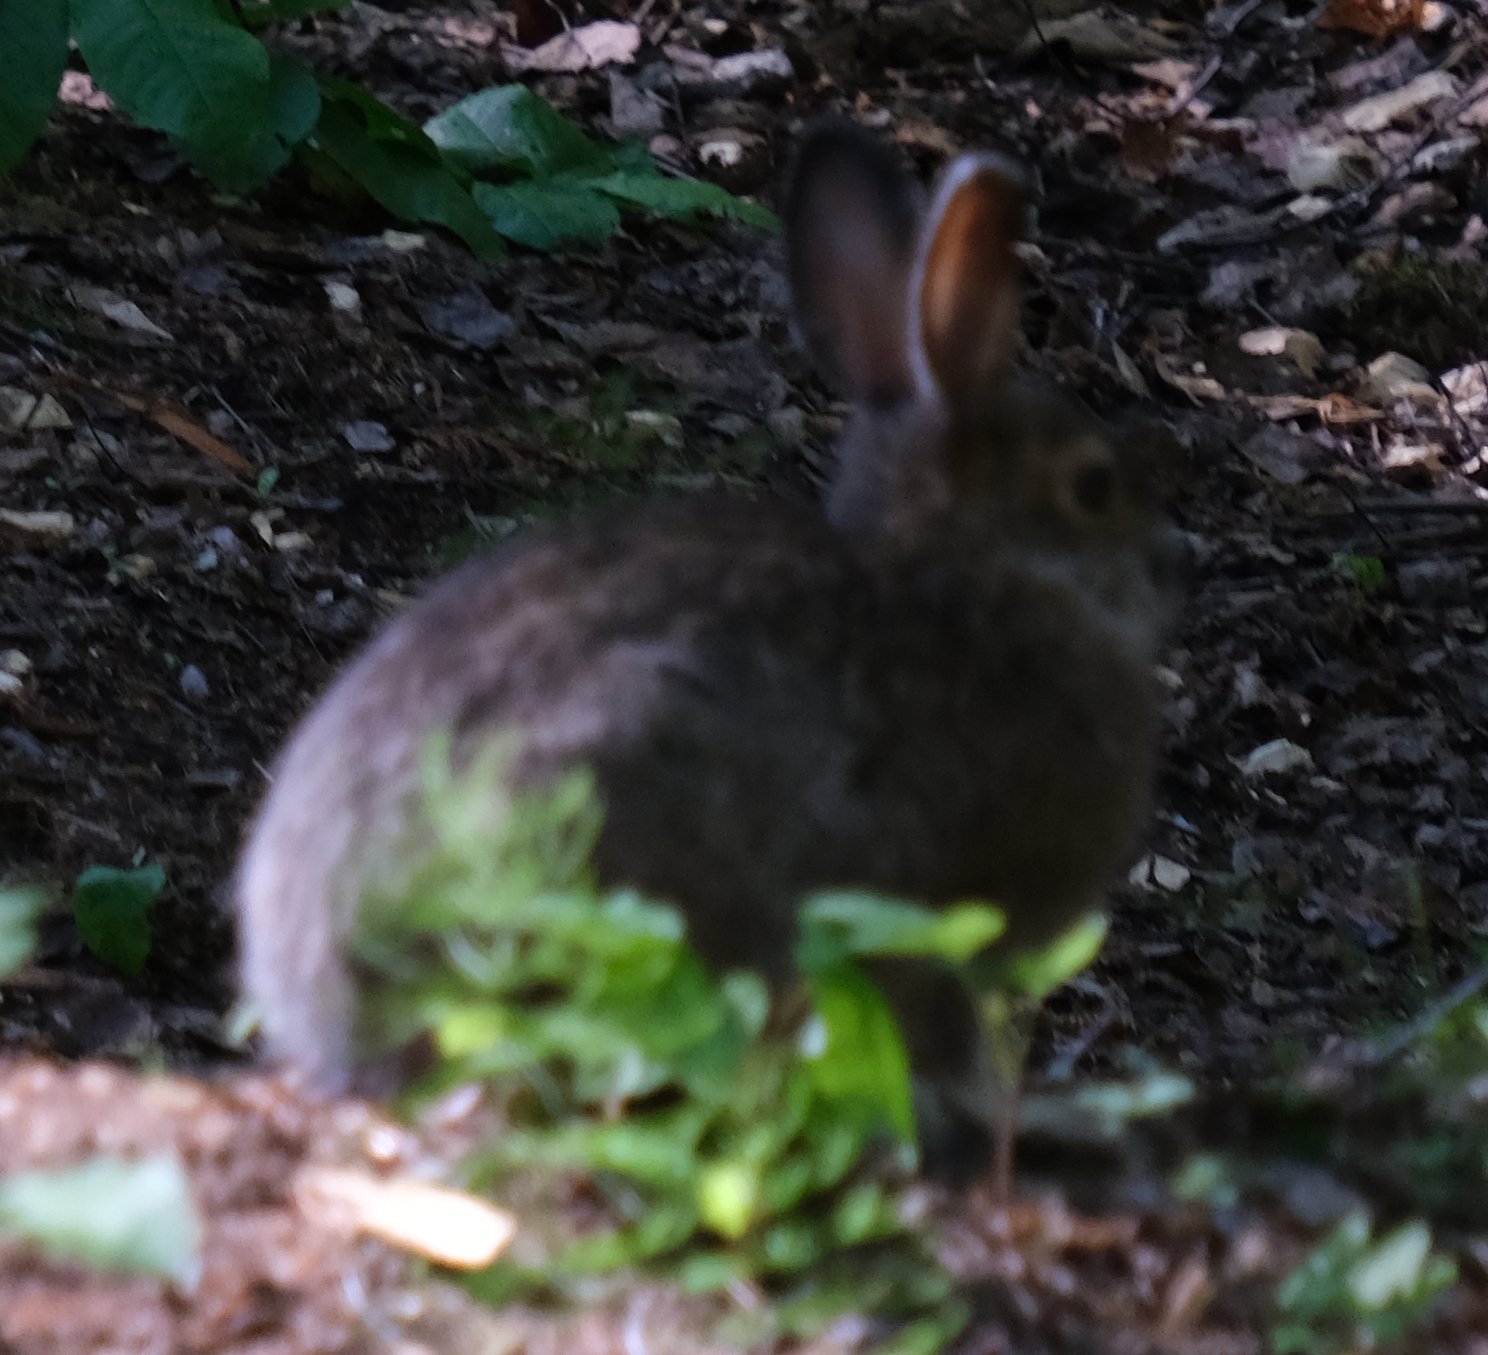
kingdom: Animalia
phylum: Chordata
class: Mammalia
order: Lagomorpha
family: Leporidae
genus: Lepus
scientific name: Lepus americanus
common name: Snowshoe hare
